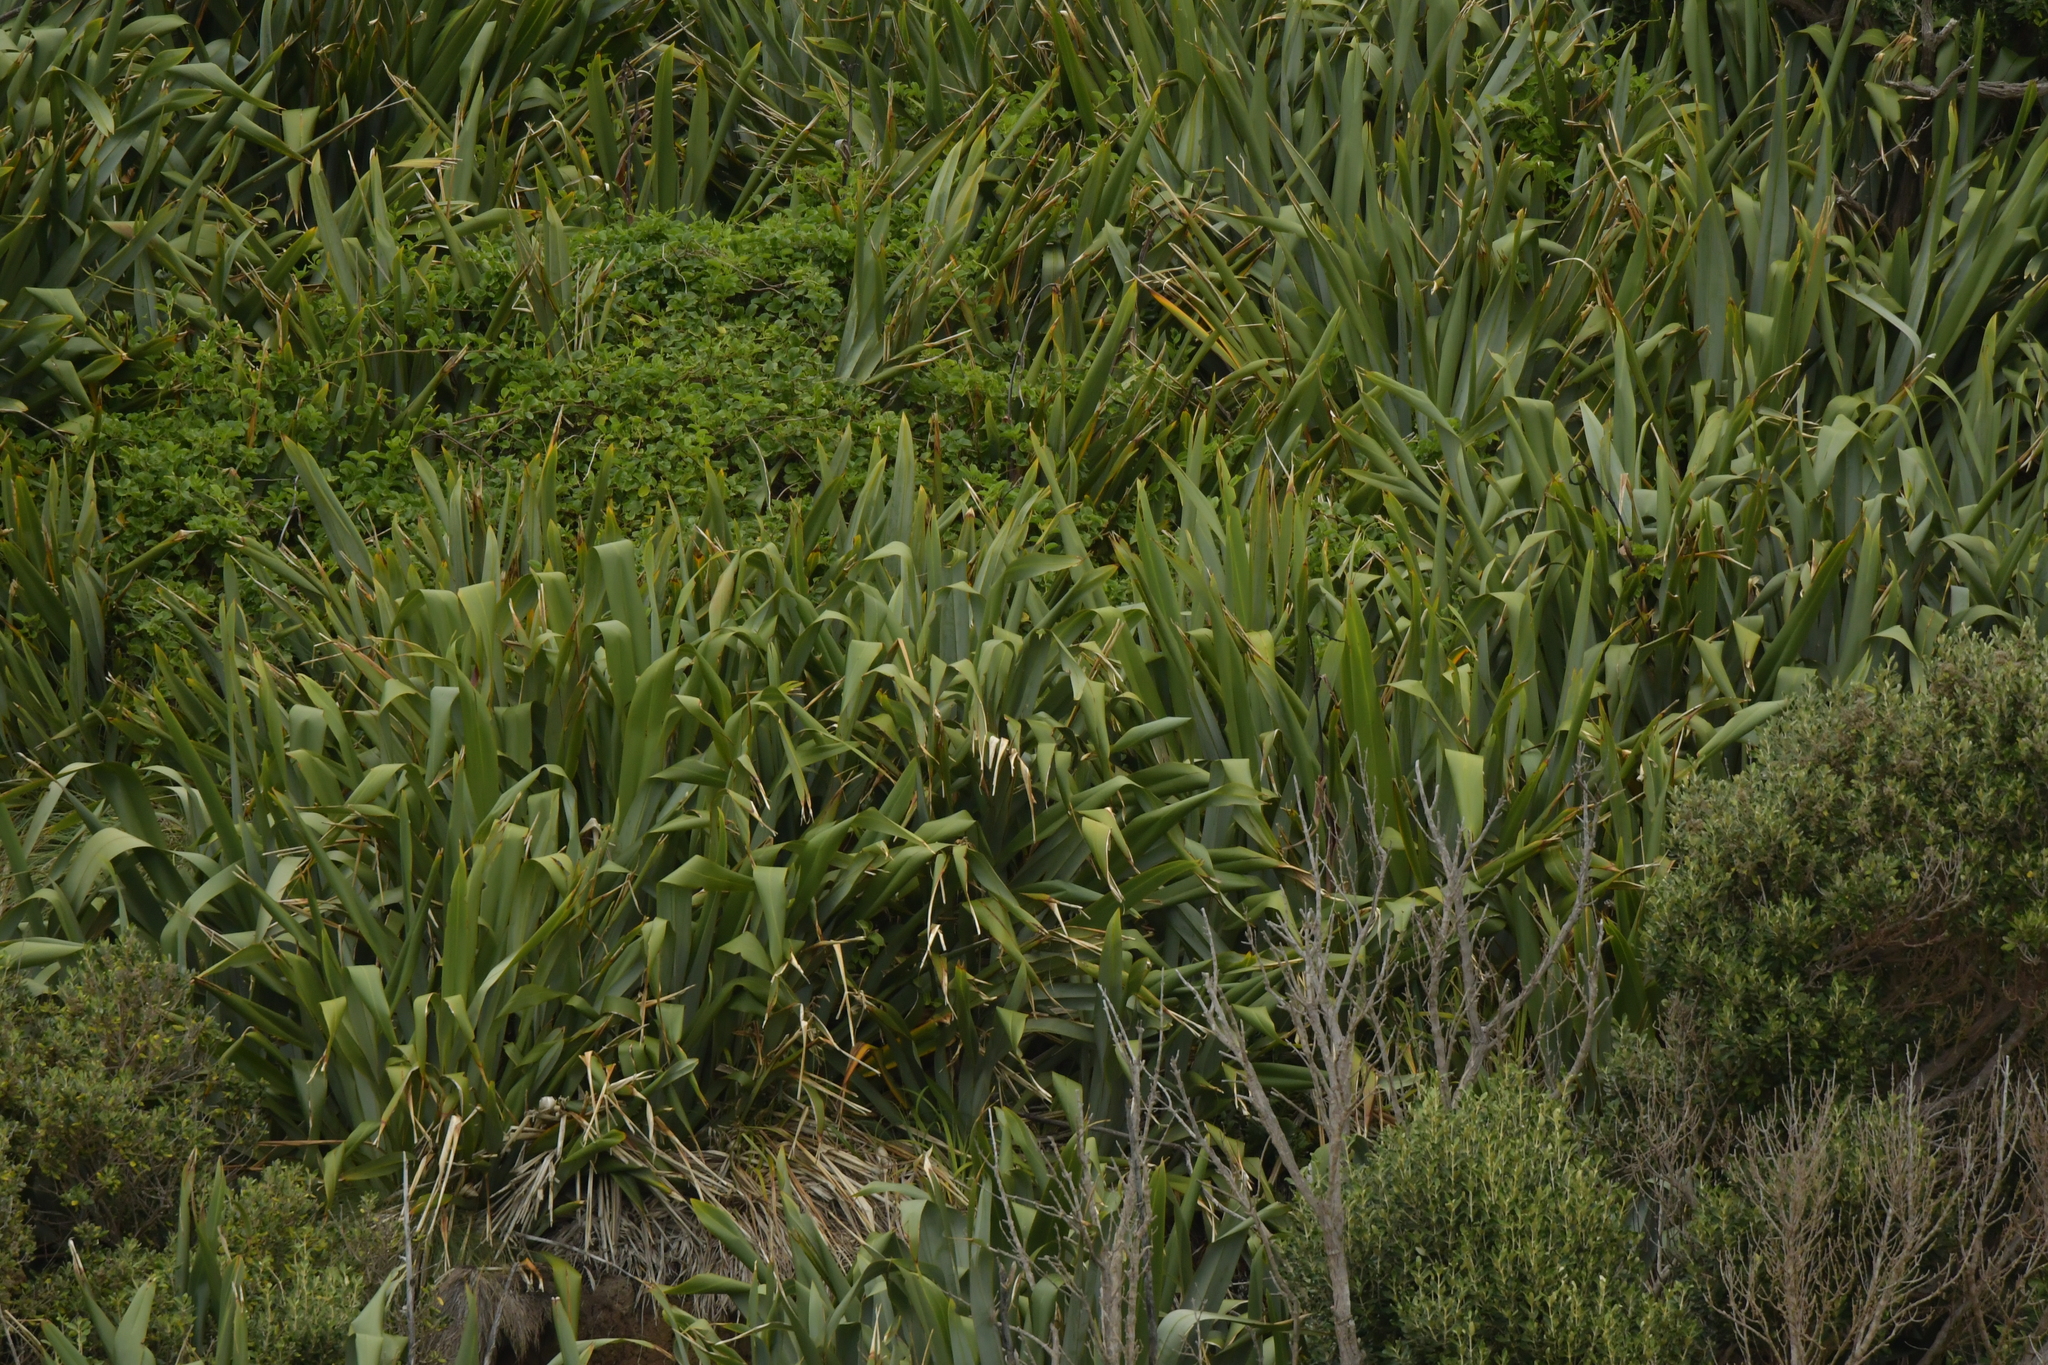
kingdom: Plantae
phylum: Tracheophyta
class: Liliopsida
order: Asparagales
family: Asphodelaceae
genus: Phormium
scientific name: Phormium tenax
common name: New zealand flax
